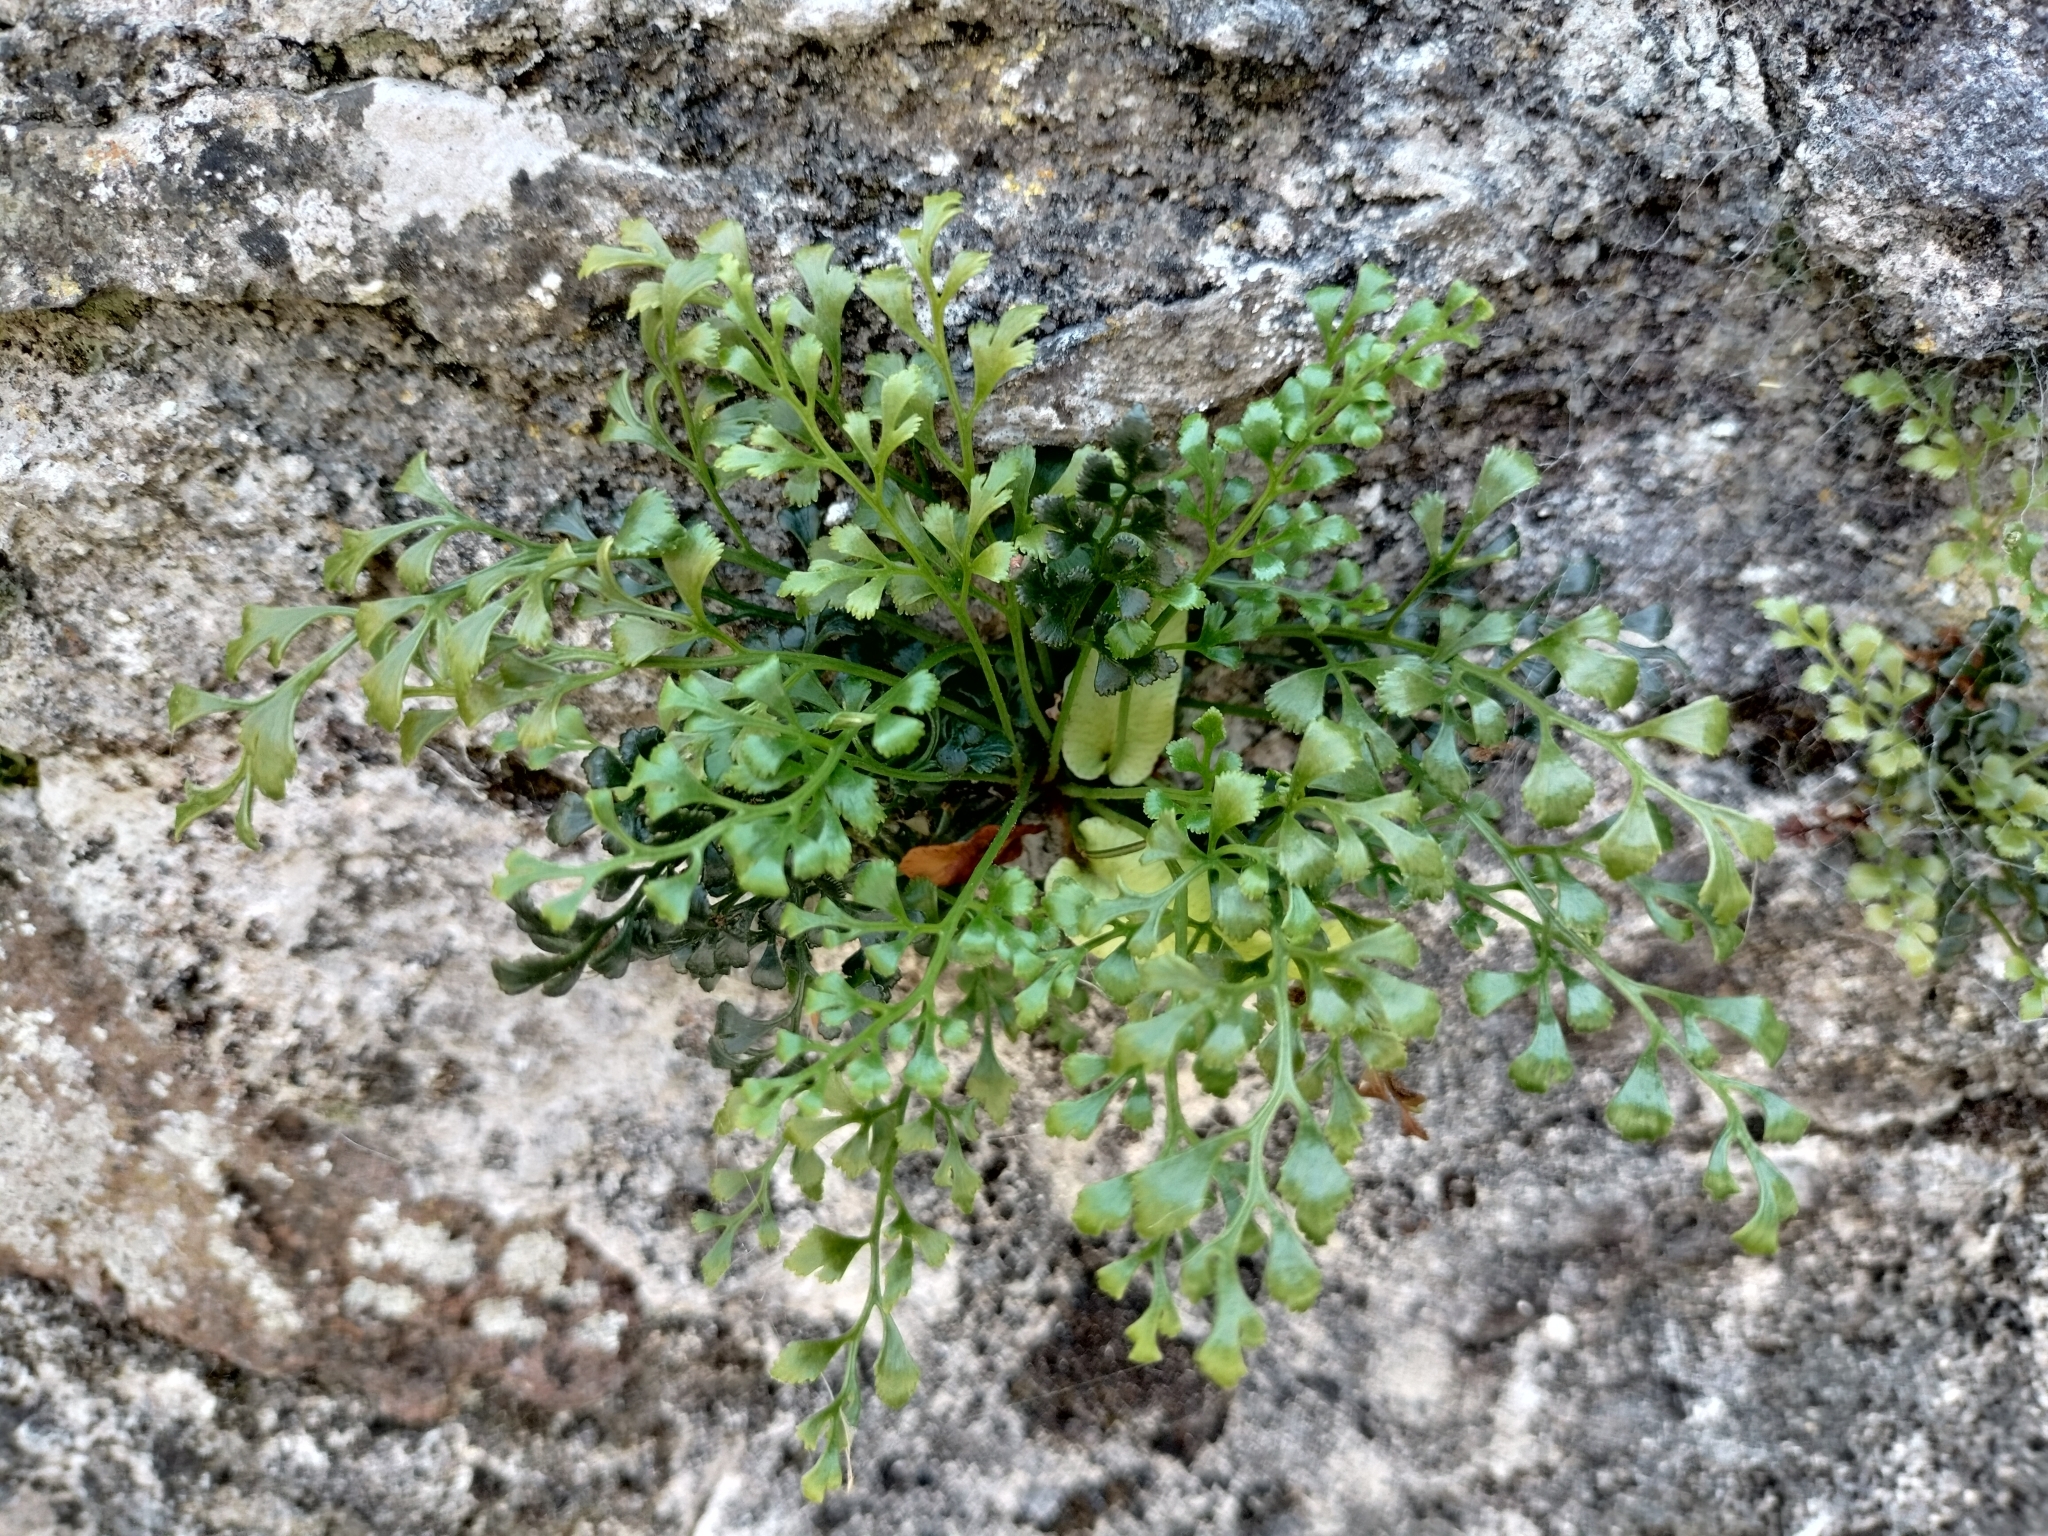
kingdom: Plantae
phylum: Tracheophyta
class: Polypodiopsida
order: Polypodiales
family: Aspleniaceae
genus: Asplenium
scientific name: Asplenium ruta-muraria
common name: Wall-rue
